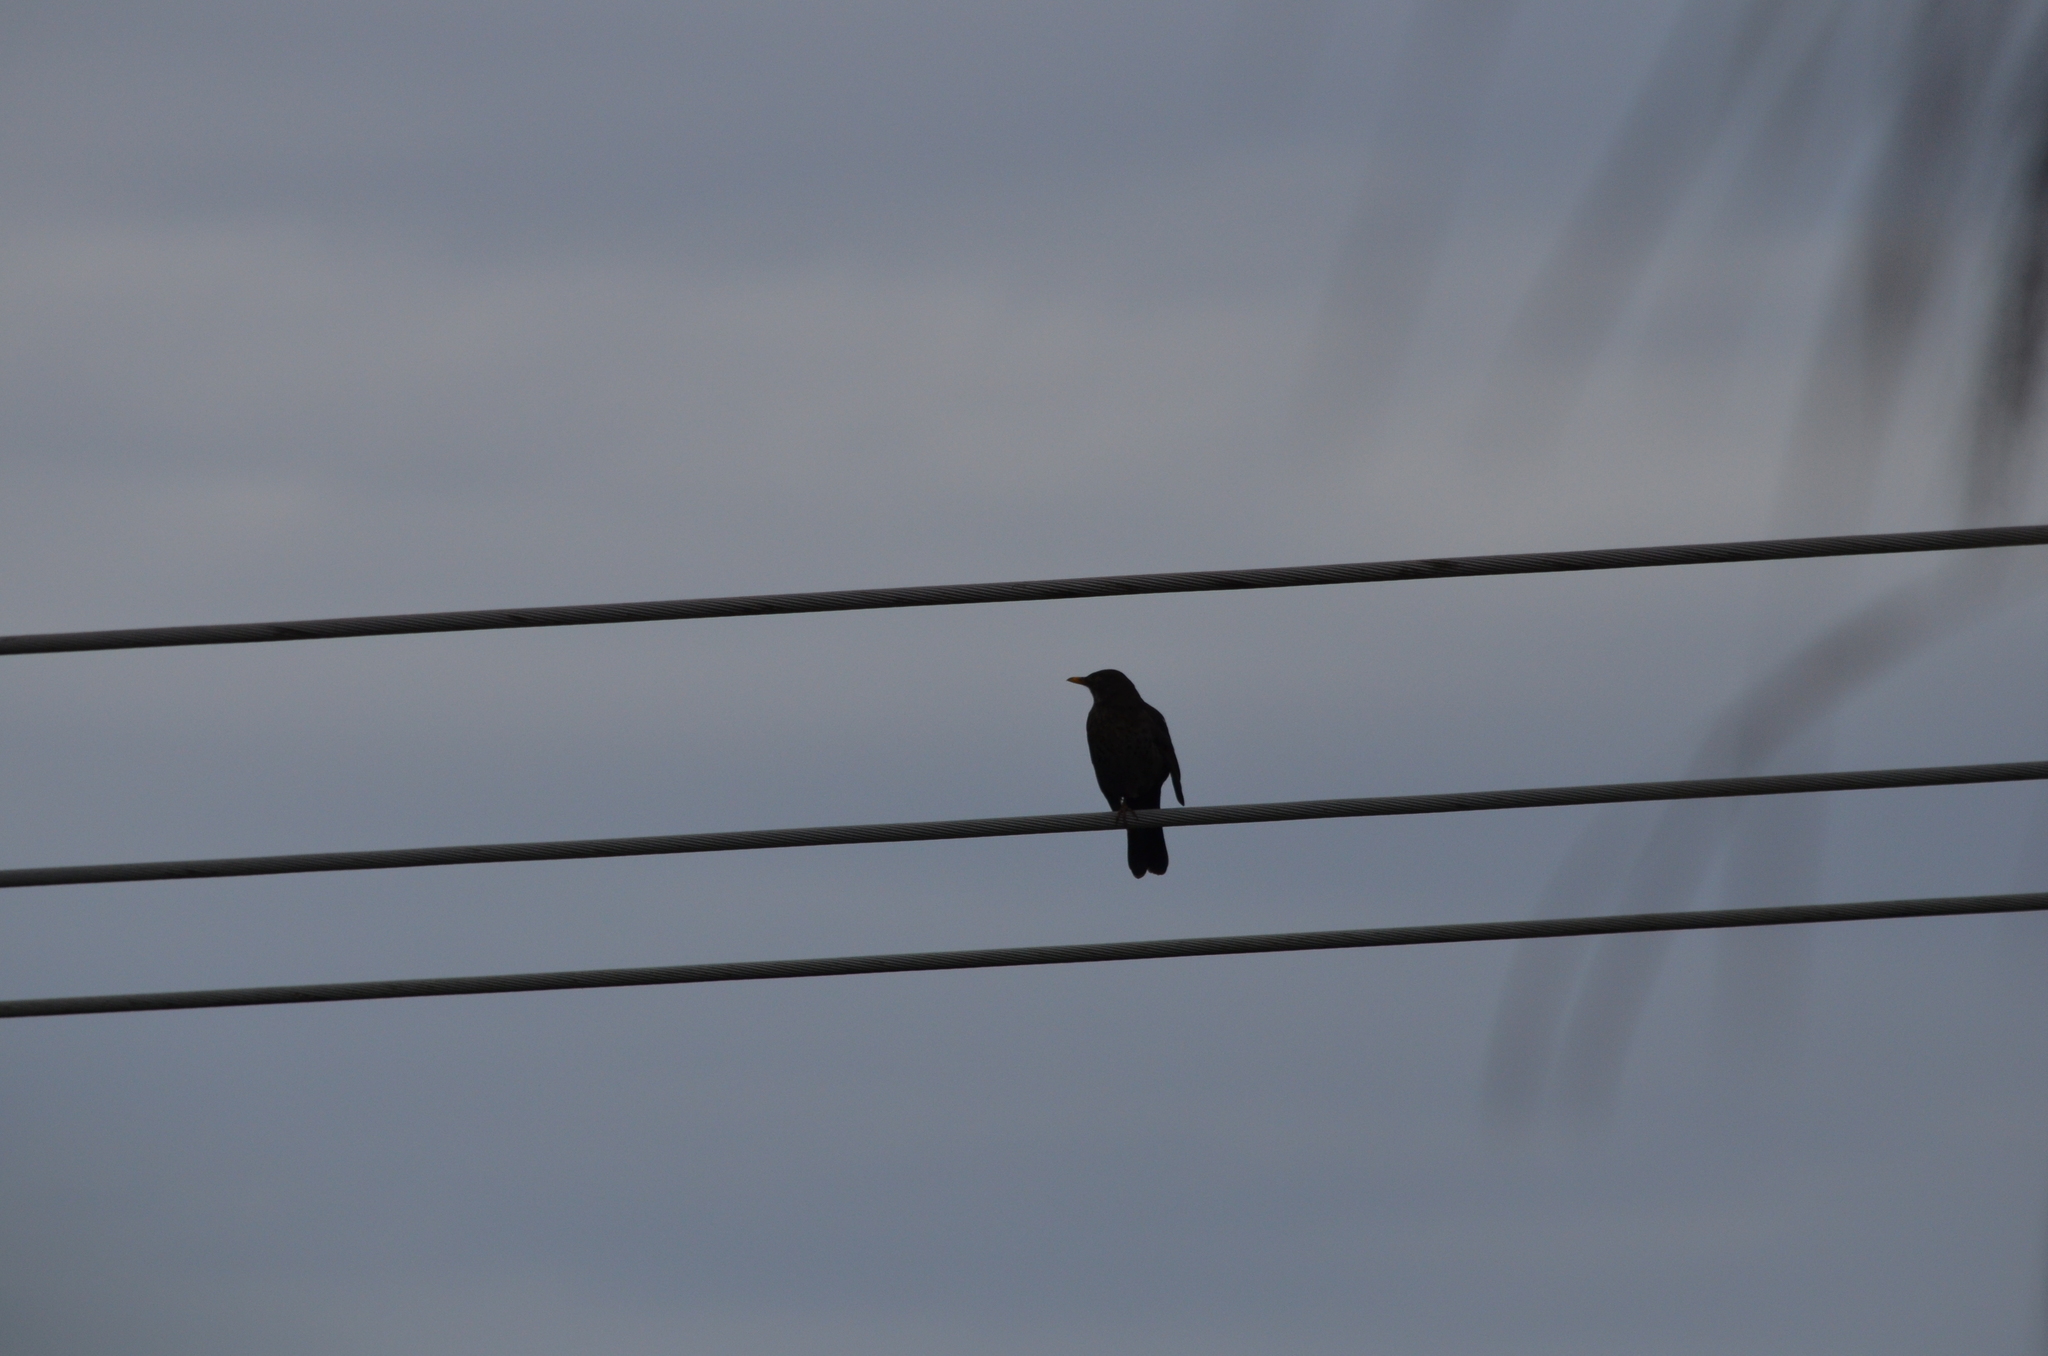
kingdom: Animalia
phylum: Chordata
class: Aves
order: Passeriformes
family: Turdidae
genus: Turdus
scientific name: Turdus merula
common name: Common blackbird
